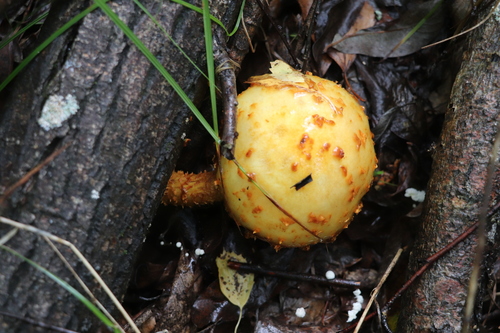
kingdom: Fungi
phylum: Basidiomycota
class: Agaricomycetes
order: Agaricales
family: Strophariaceae
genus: Pholiota
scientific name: Pholiota
